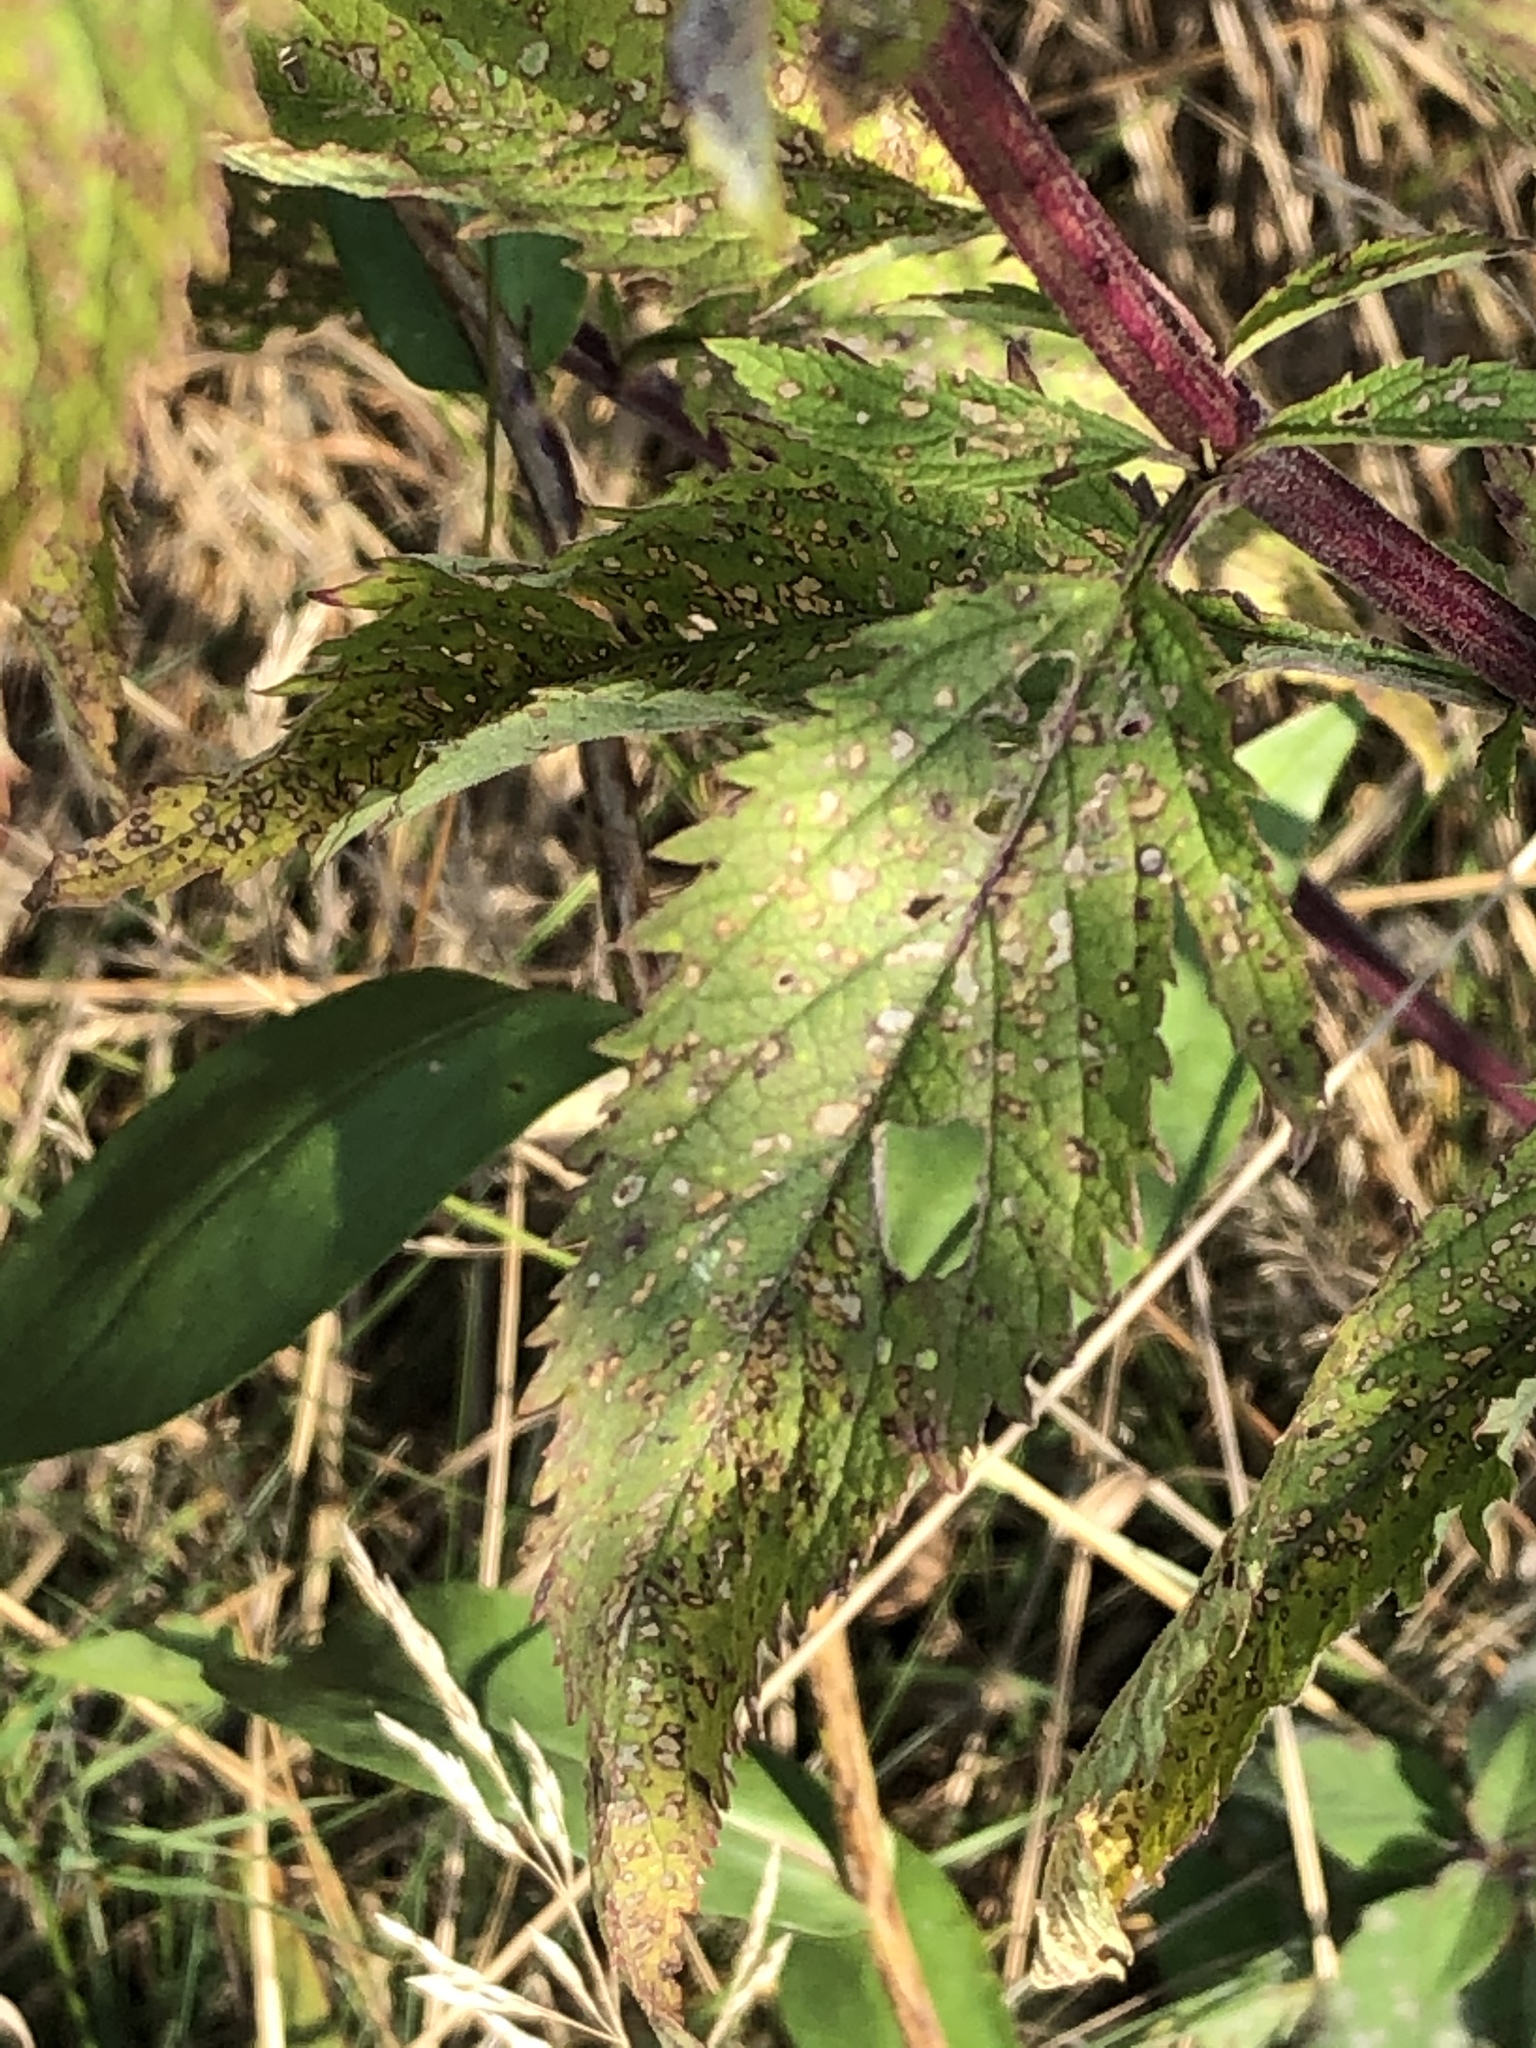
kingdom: Plantae
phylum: Tracheophyta
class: Magnoliopsida
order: Lamiales
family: Verbenaceae
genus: Verbena
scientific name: Verbena hastata
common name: American blue vervain
